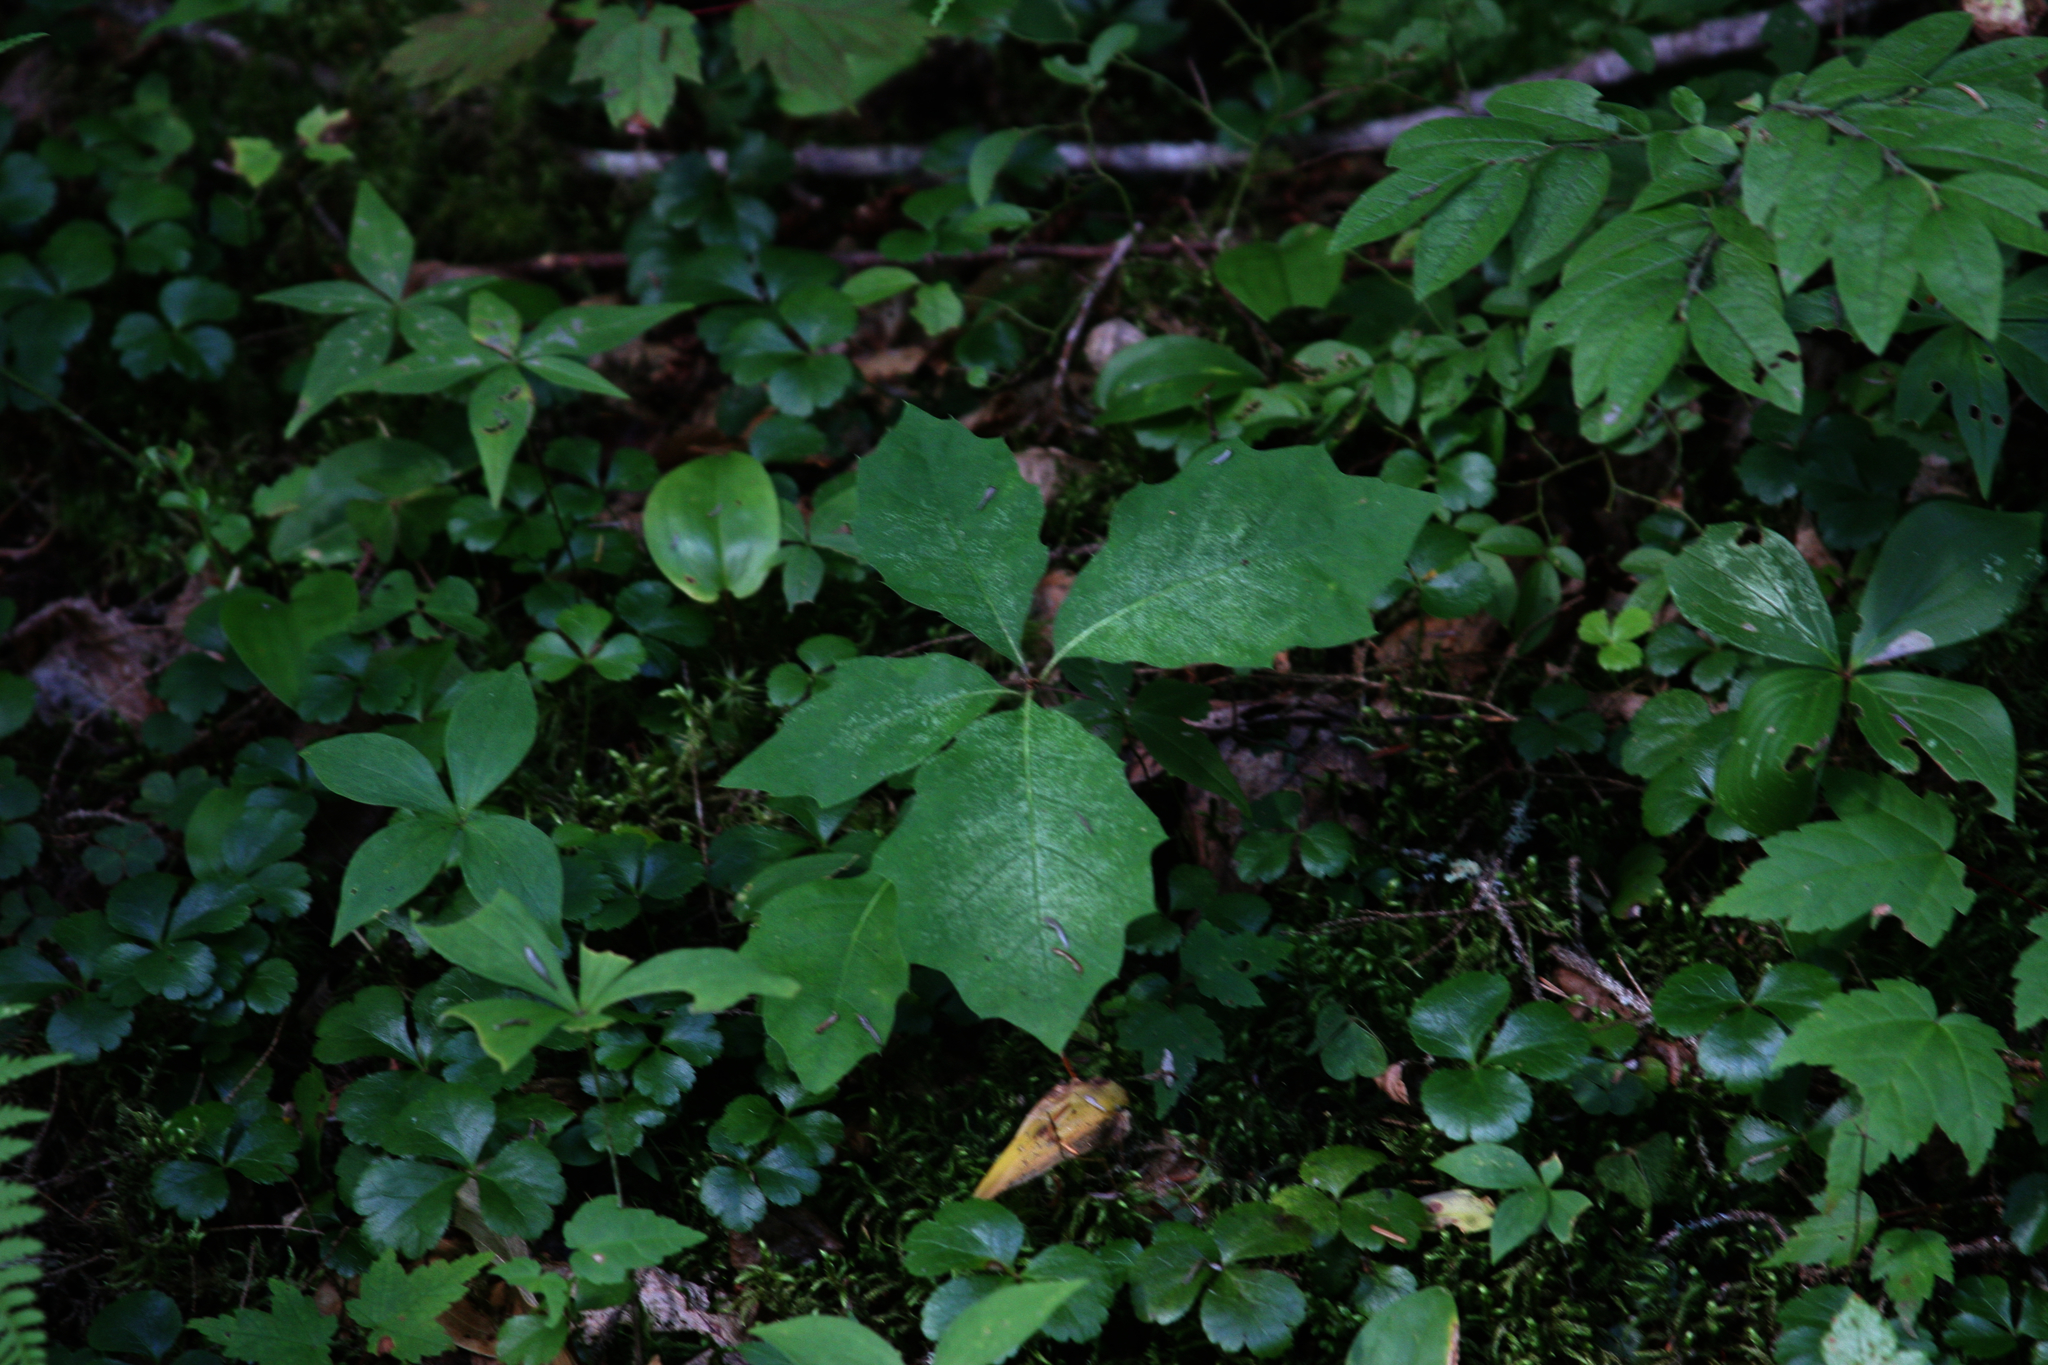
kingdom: Plantae
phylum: Tracheophyta
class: Magnoliopsida
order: Ericales
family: Primulaceae
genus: Lysimachia
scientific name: Lysimachia borealis
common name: American starflower
